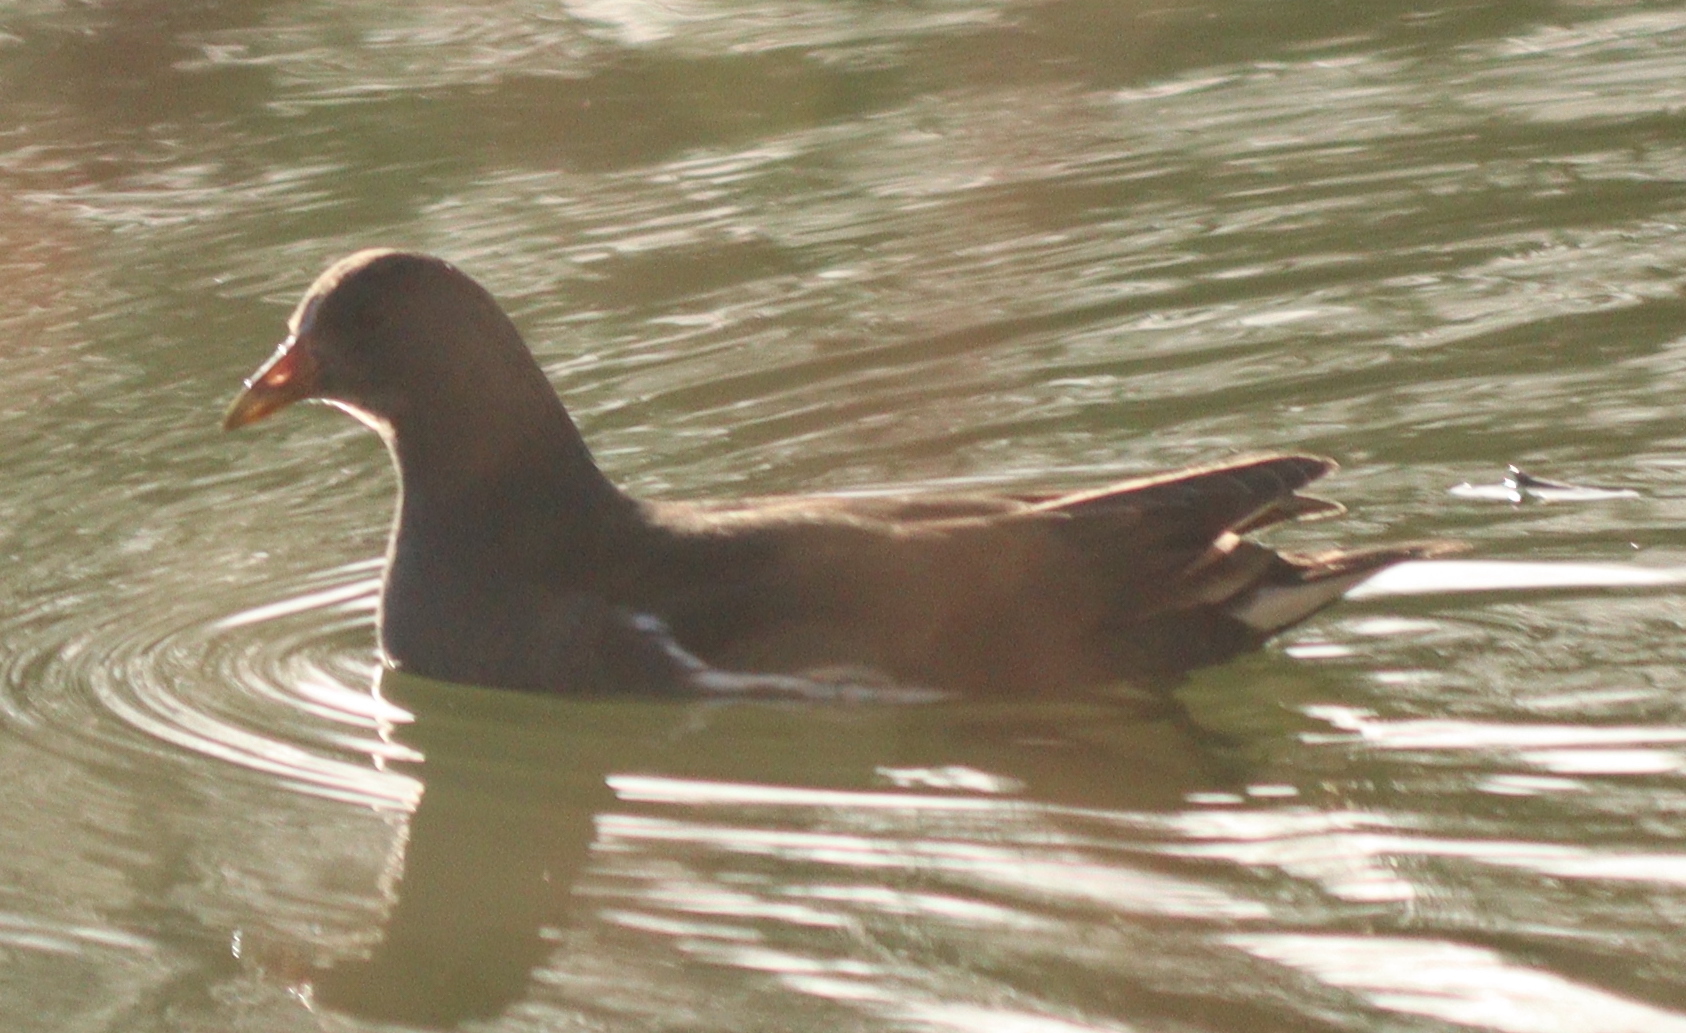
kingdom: Animalia
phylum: Chordata
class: Aves
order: Gruiformes
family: Rallidae
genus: Gallinula
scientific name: Gallinula chloropus
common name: Common moorhen
